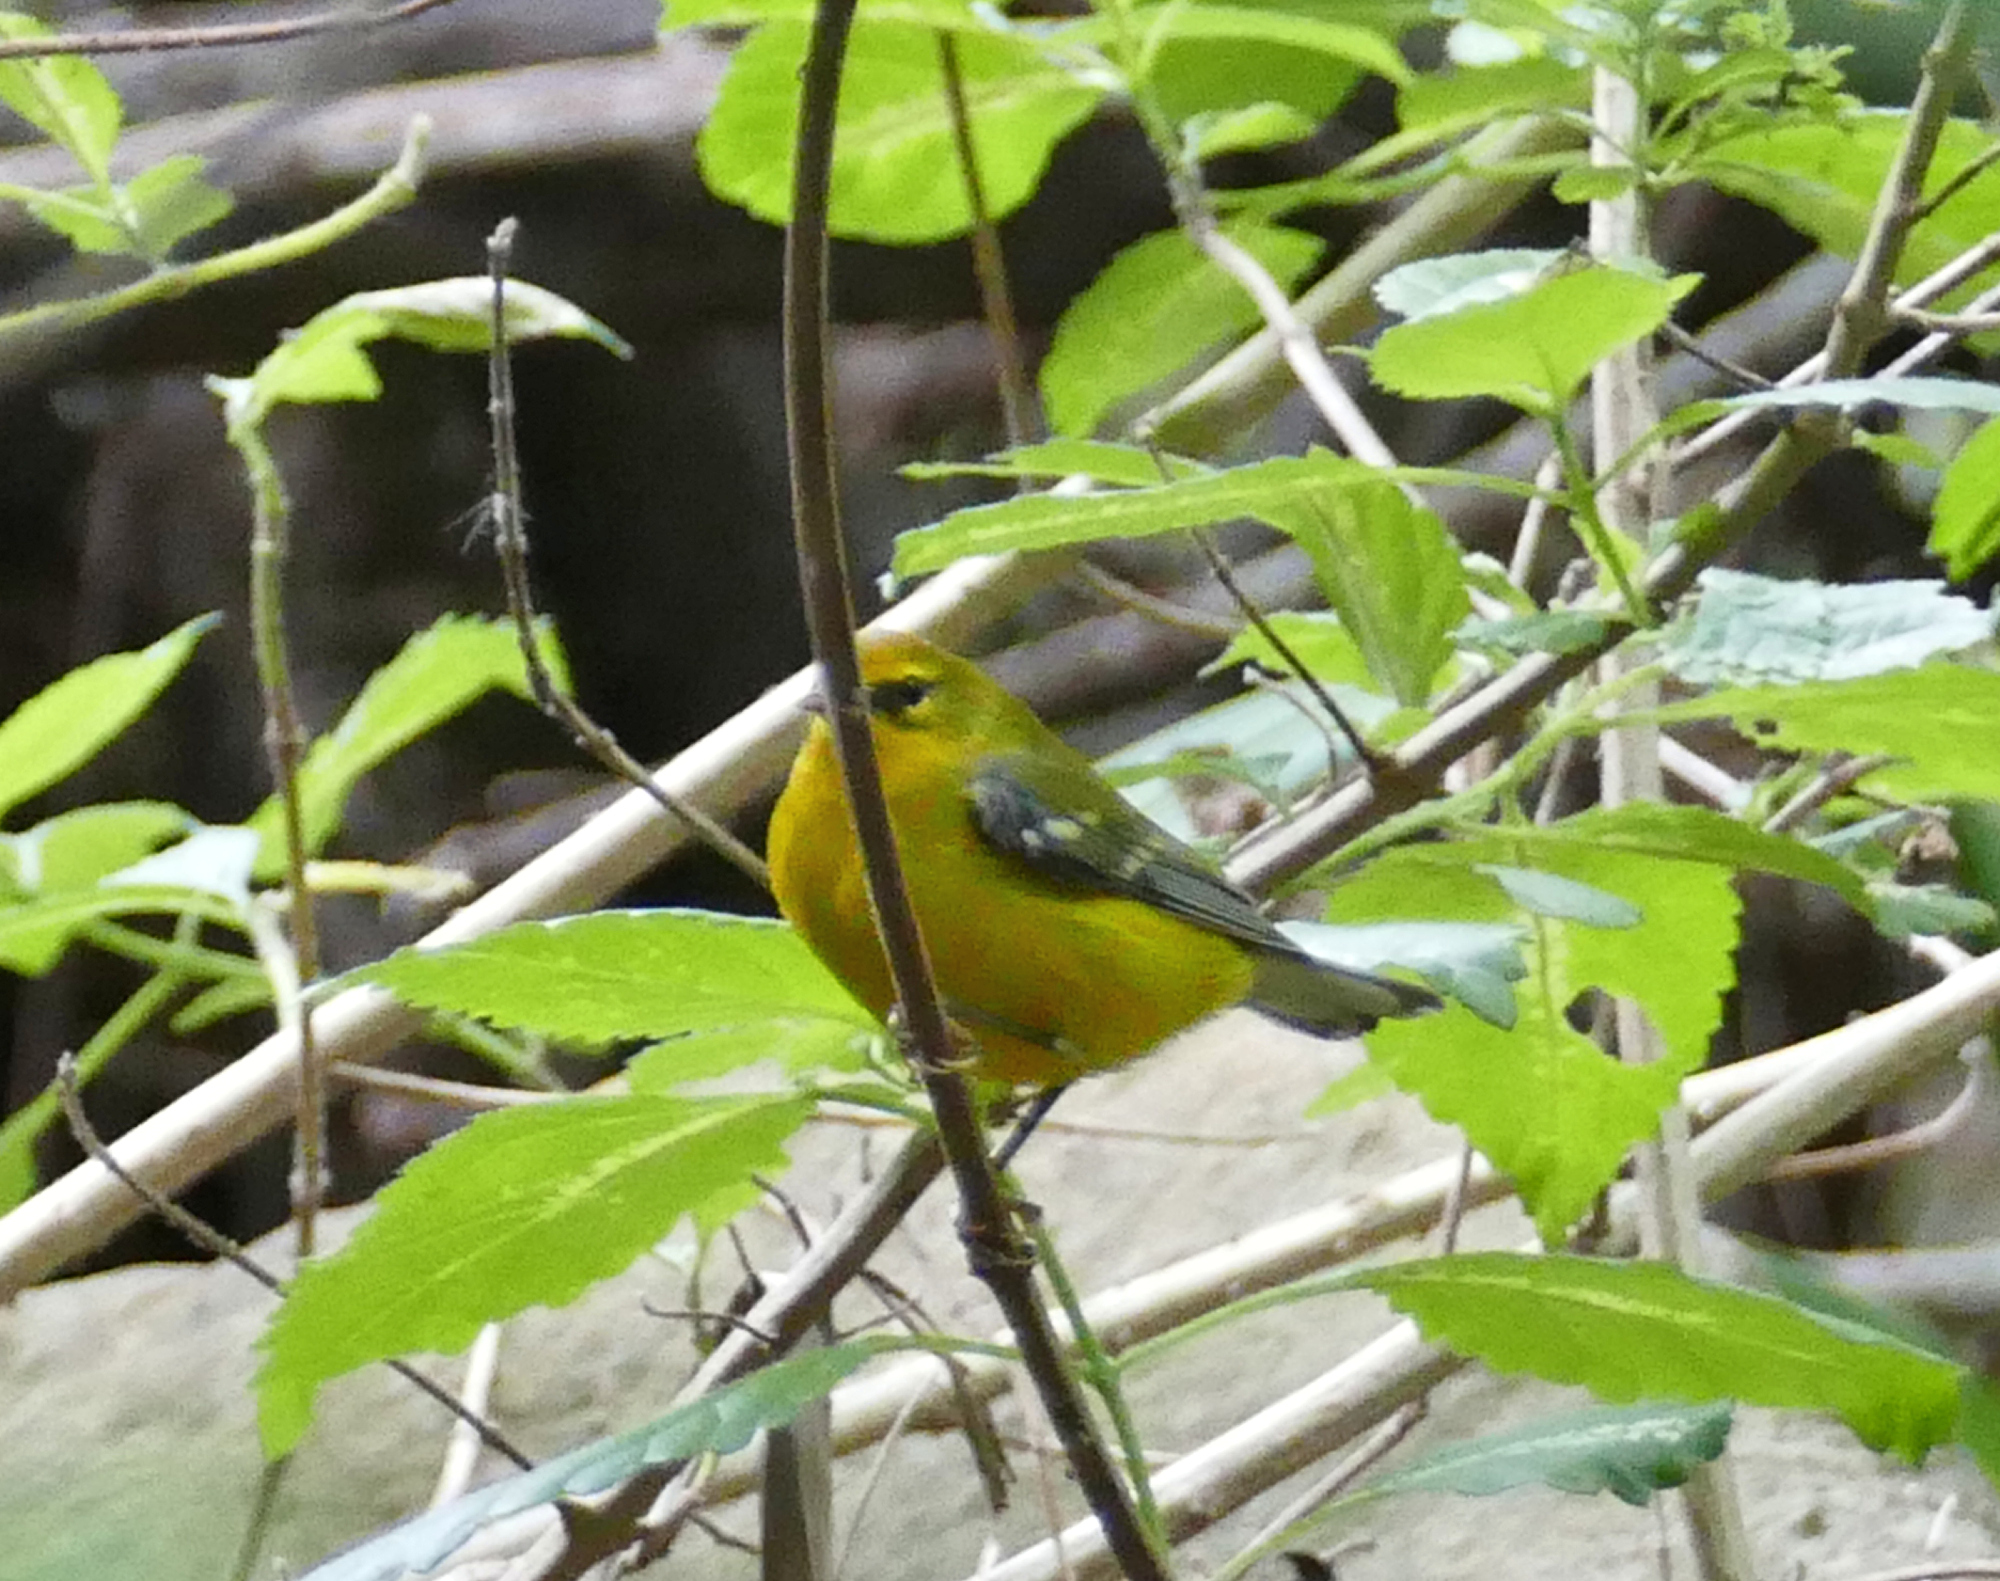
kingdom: Animalia
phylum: Chordata
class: Aves
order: Passeriformes
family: Parulidae
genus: Vermivora
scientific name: Vermivora cyanoptera
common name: Blue-winged warbler
